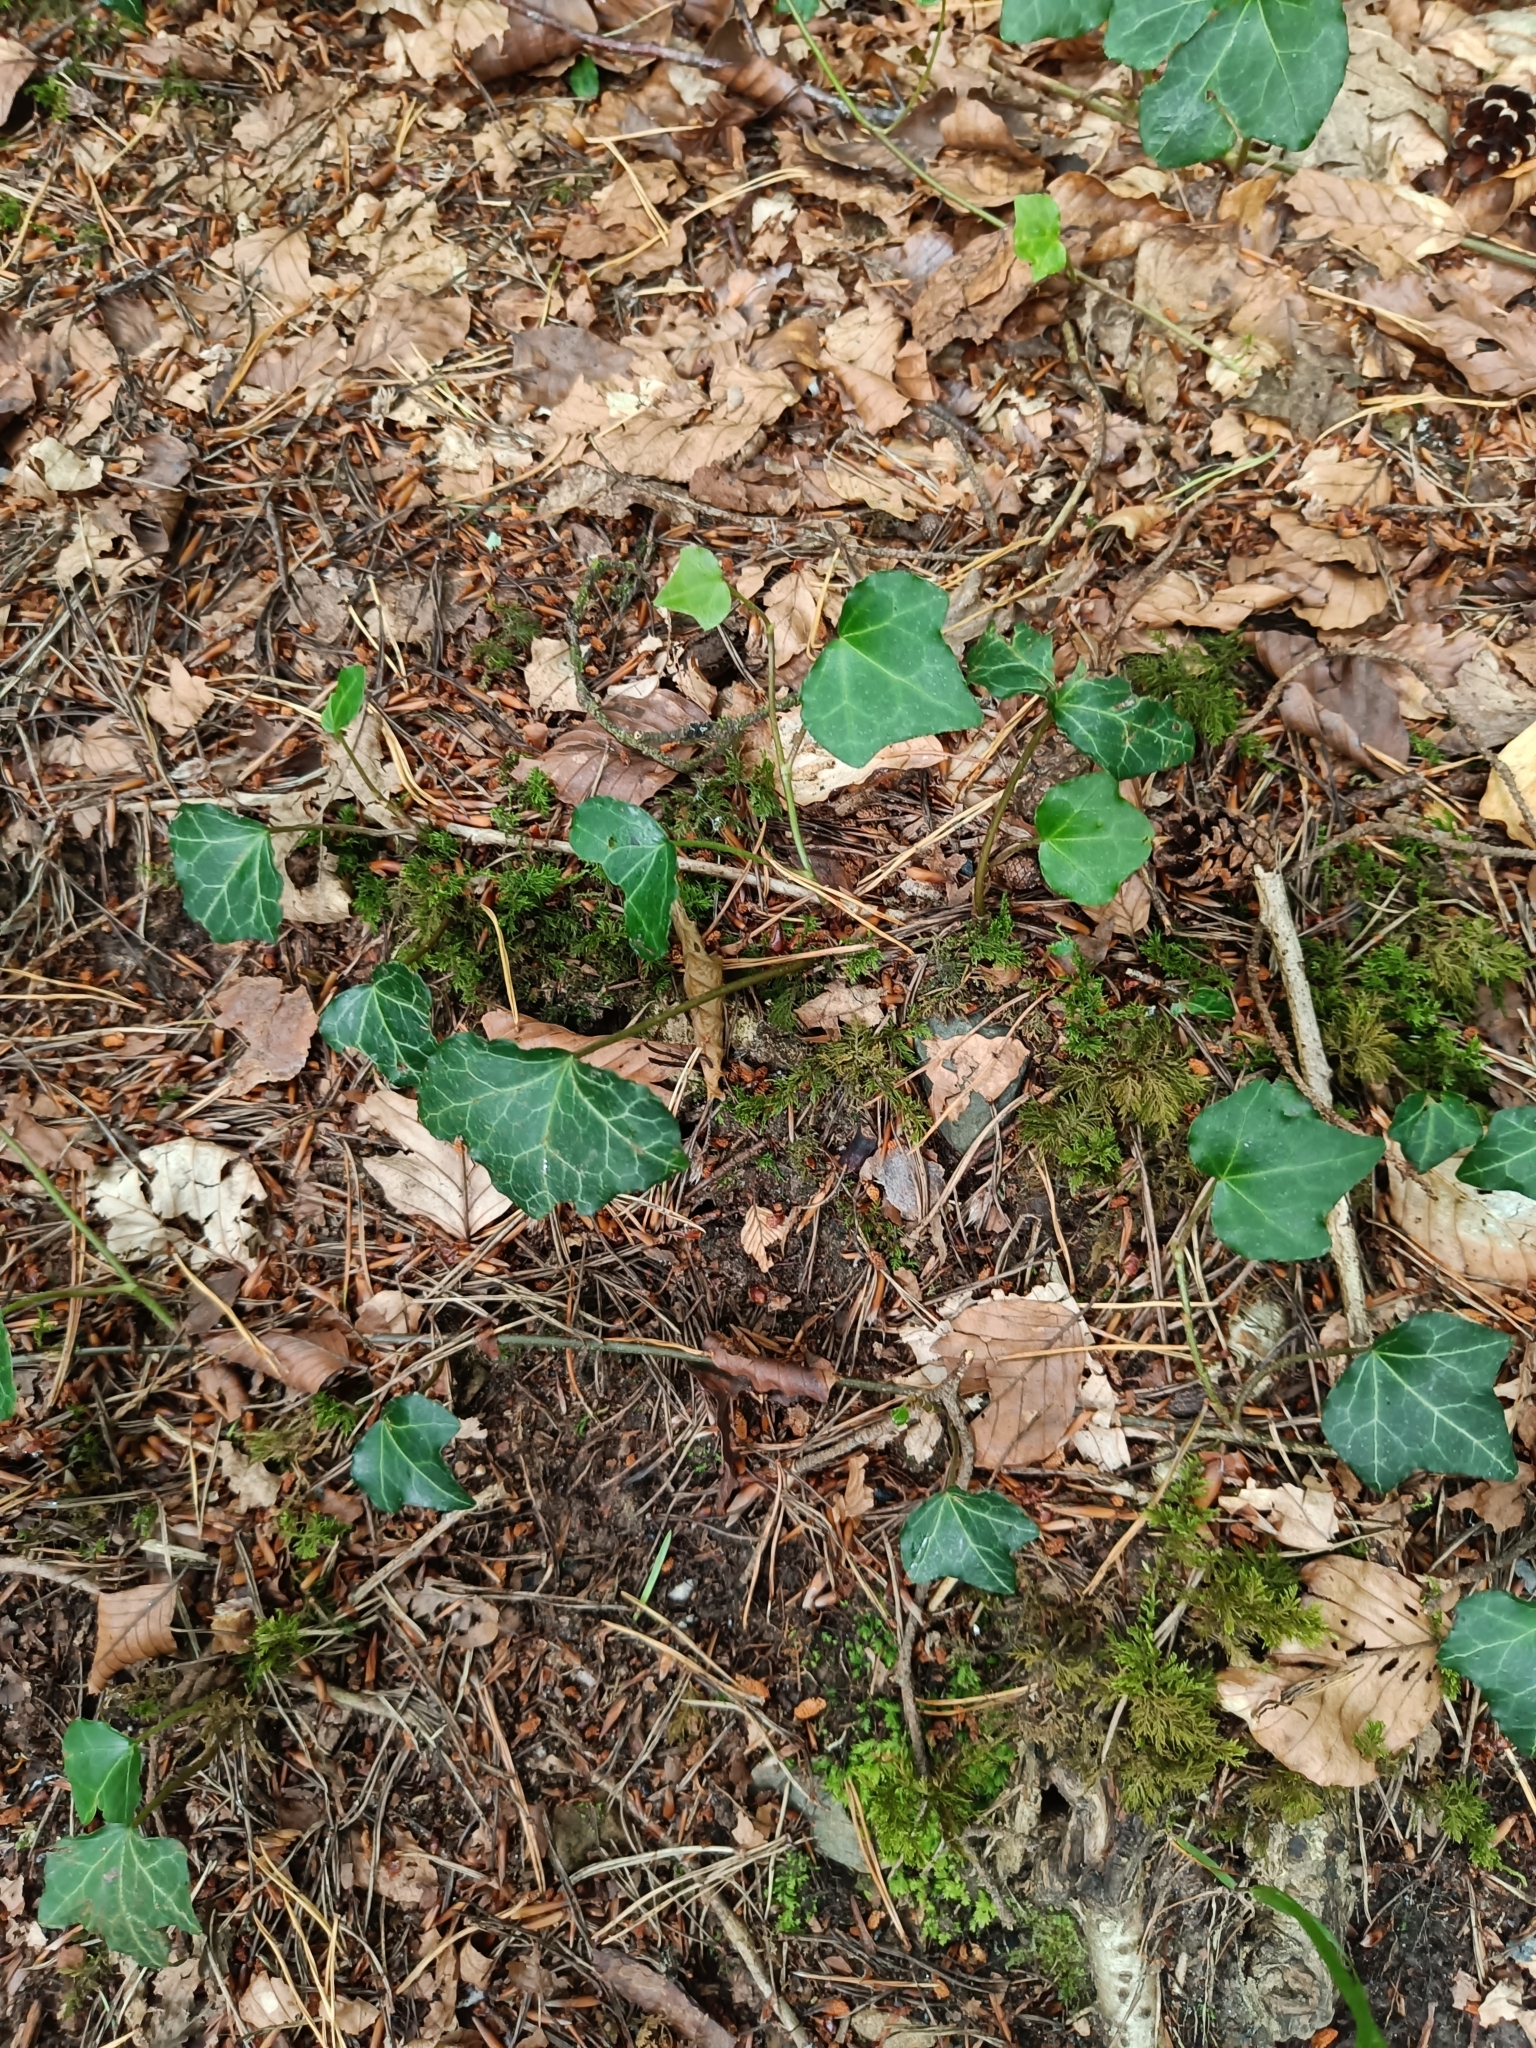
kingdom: Plantae
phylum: Tracheophyta
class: Magnoliopsida
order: Apiales
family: Araliaceae
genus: Hedera
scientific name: Hedera helix
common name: Ivy
